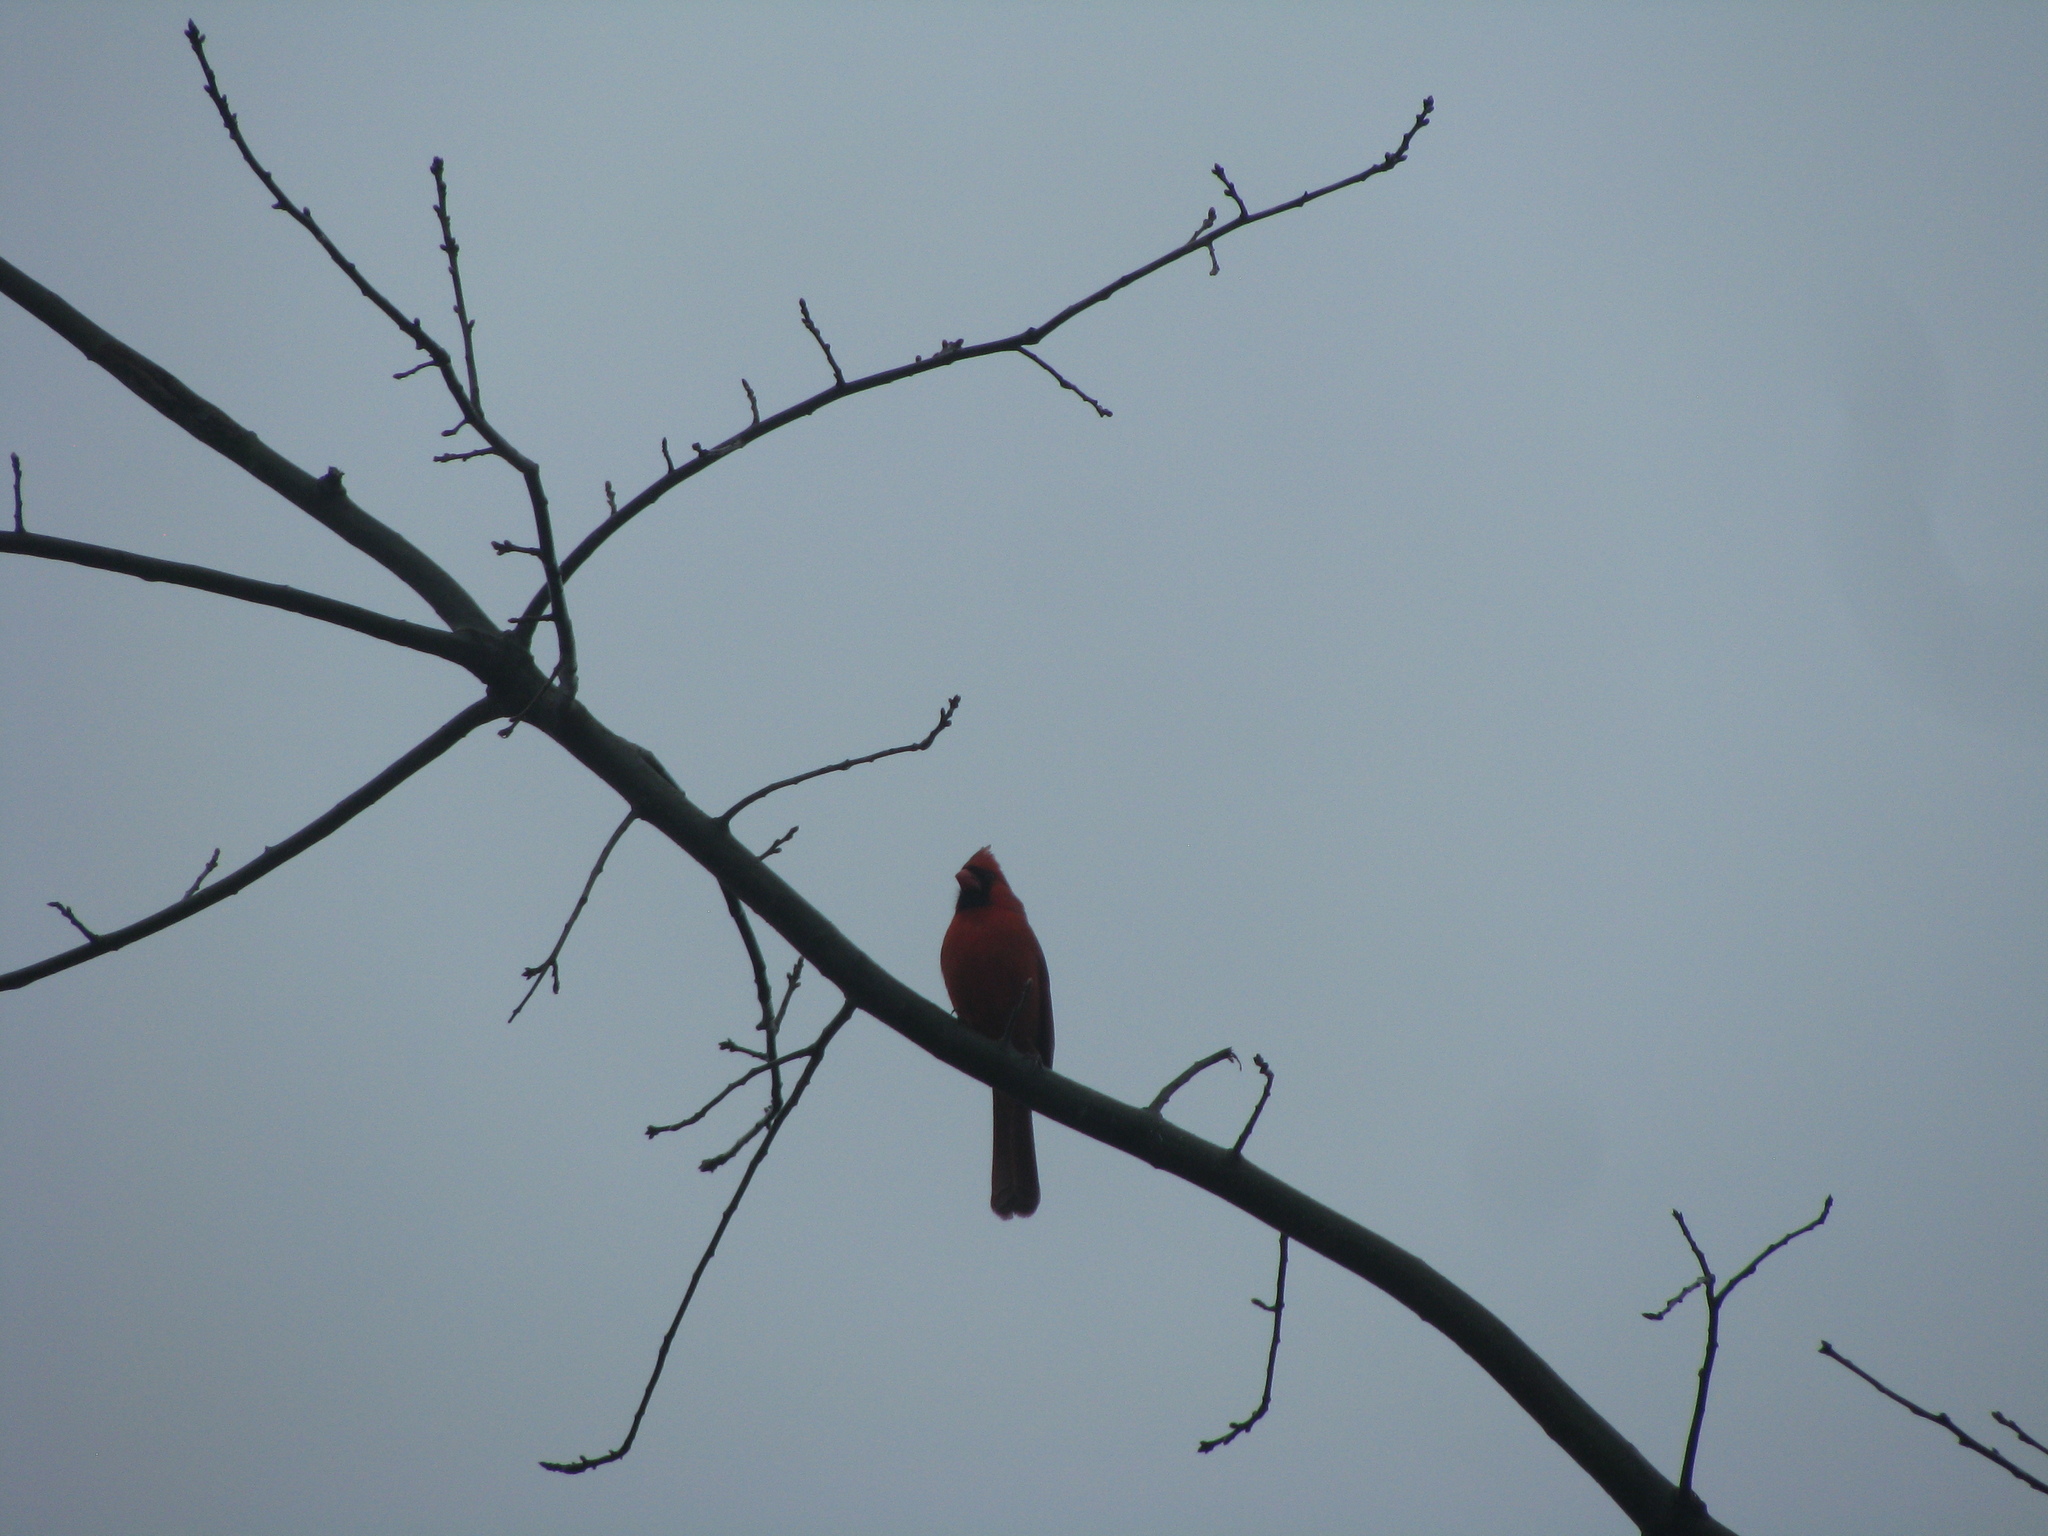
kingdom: Animalia
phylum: Chordata
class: Aves
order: Passeriformes
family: Cardinalidae
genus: Cardinalis
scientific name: Cardinalis cardinalis
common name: Northern cardinal
